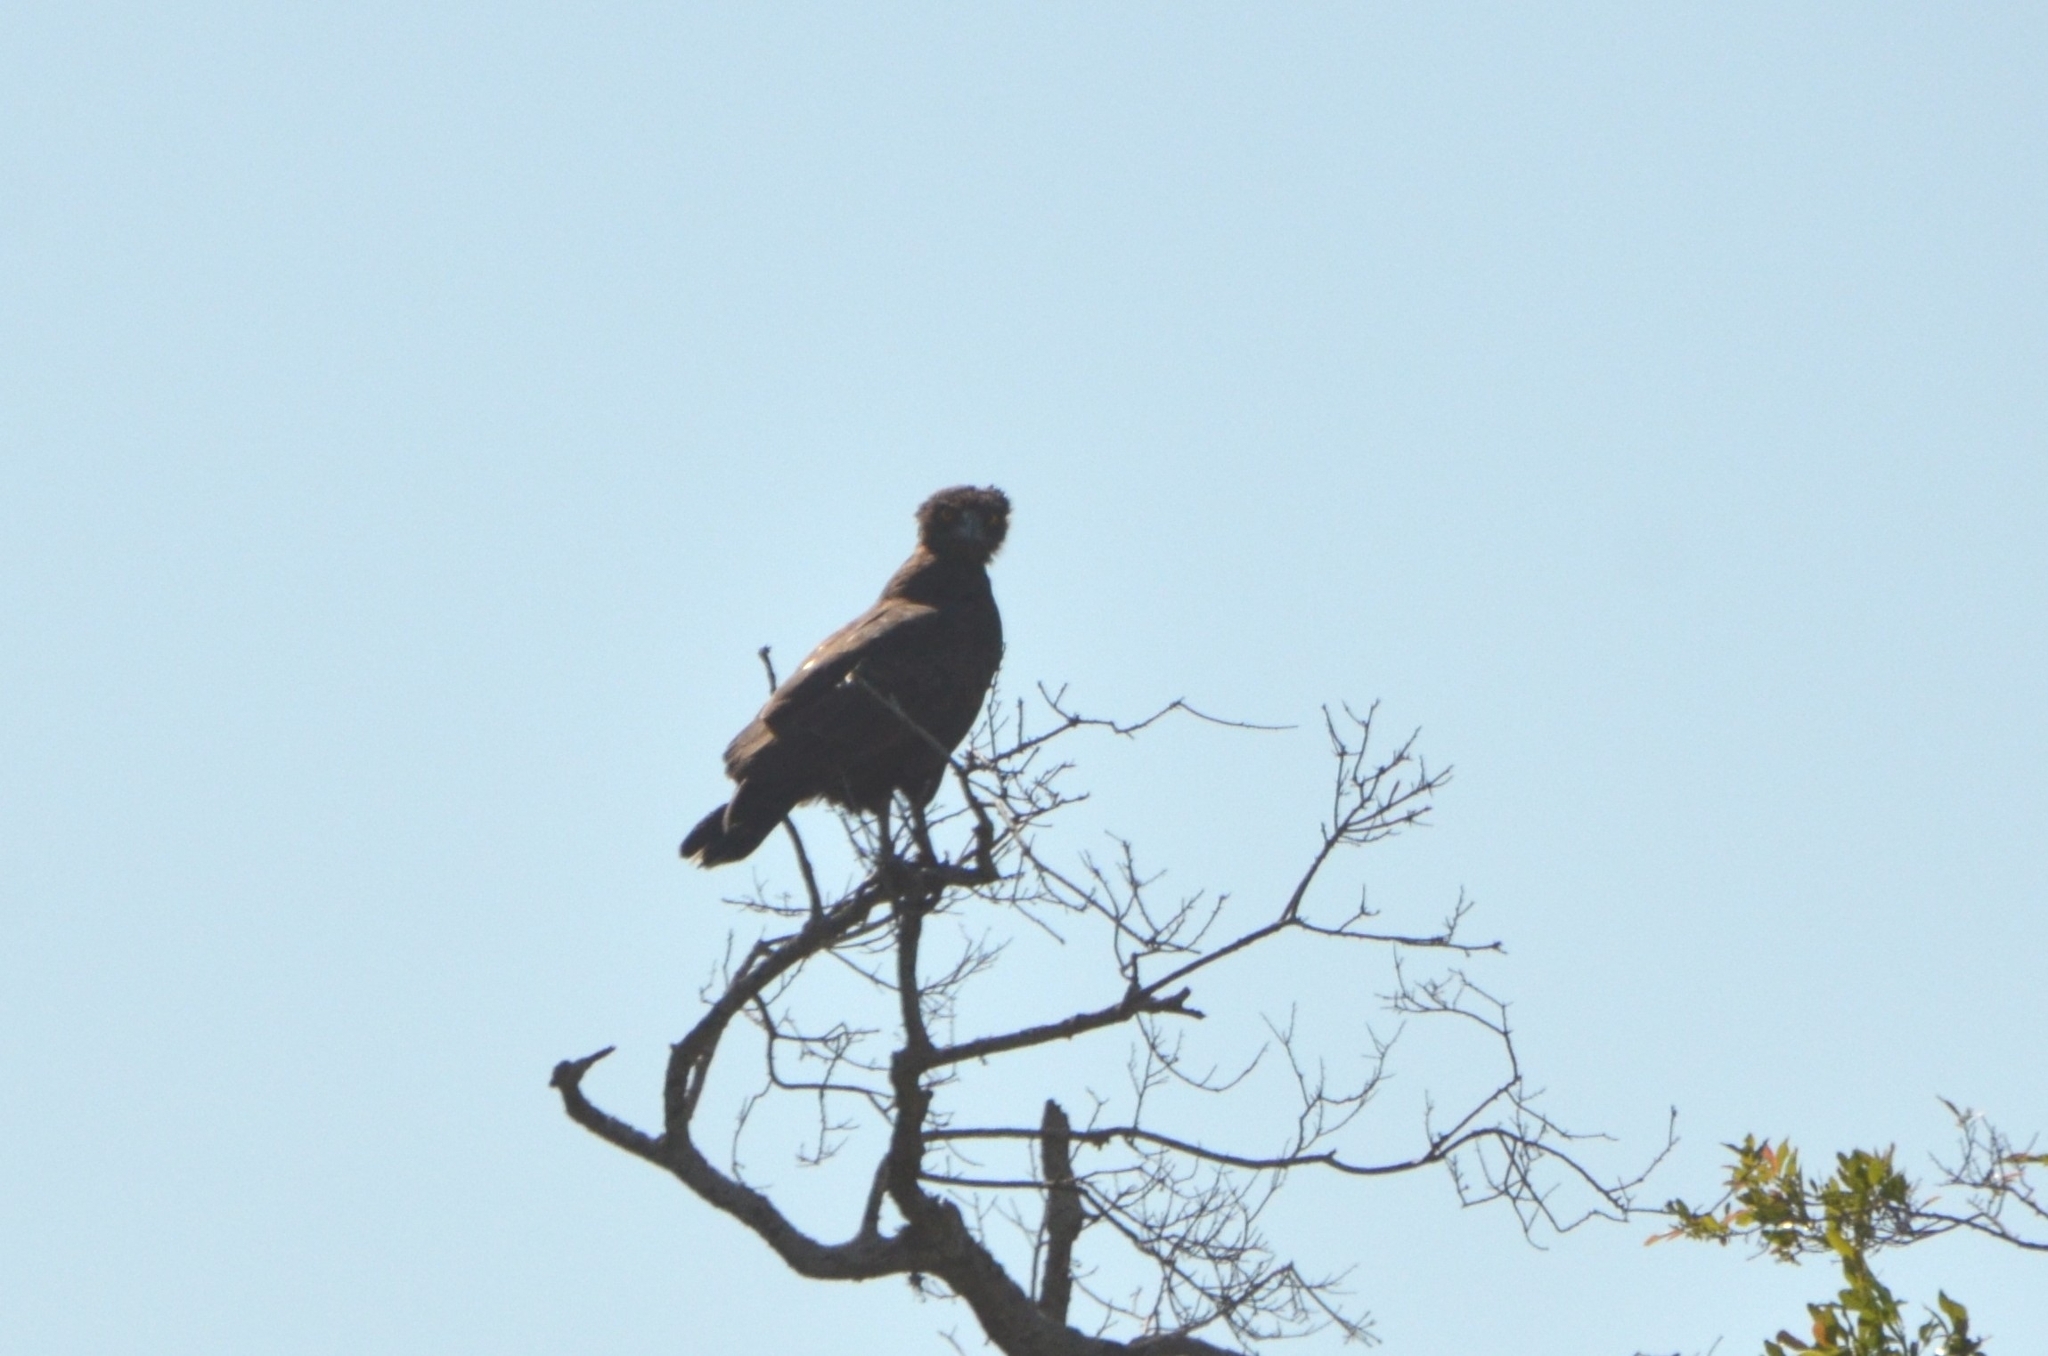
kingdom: Animalia
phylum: Chordata
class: Aves
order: Accipitriformes
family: Accipitridae
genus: Circaetus
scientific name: Circaetus cinereus
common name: Brown snake eagle
